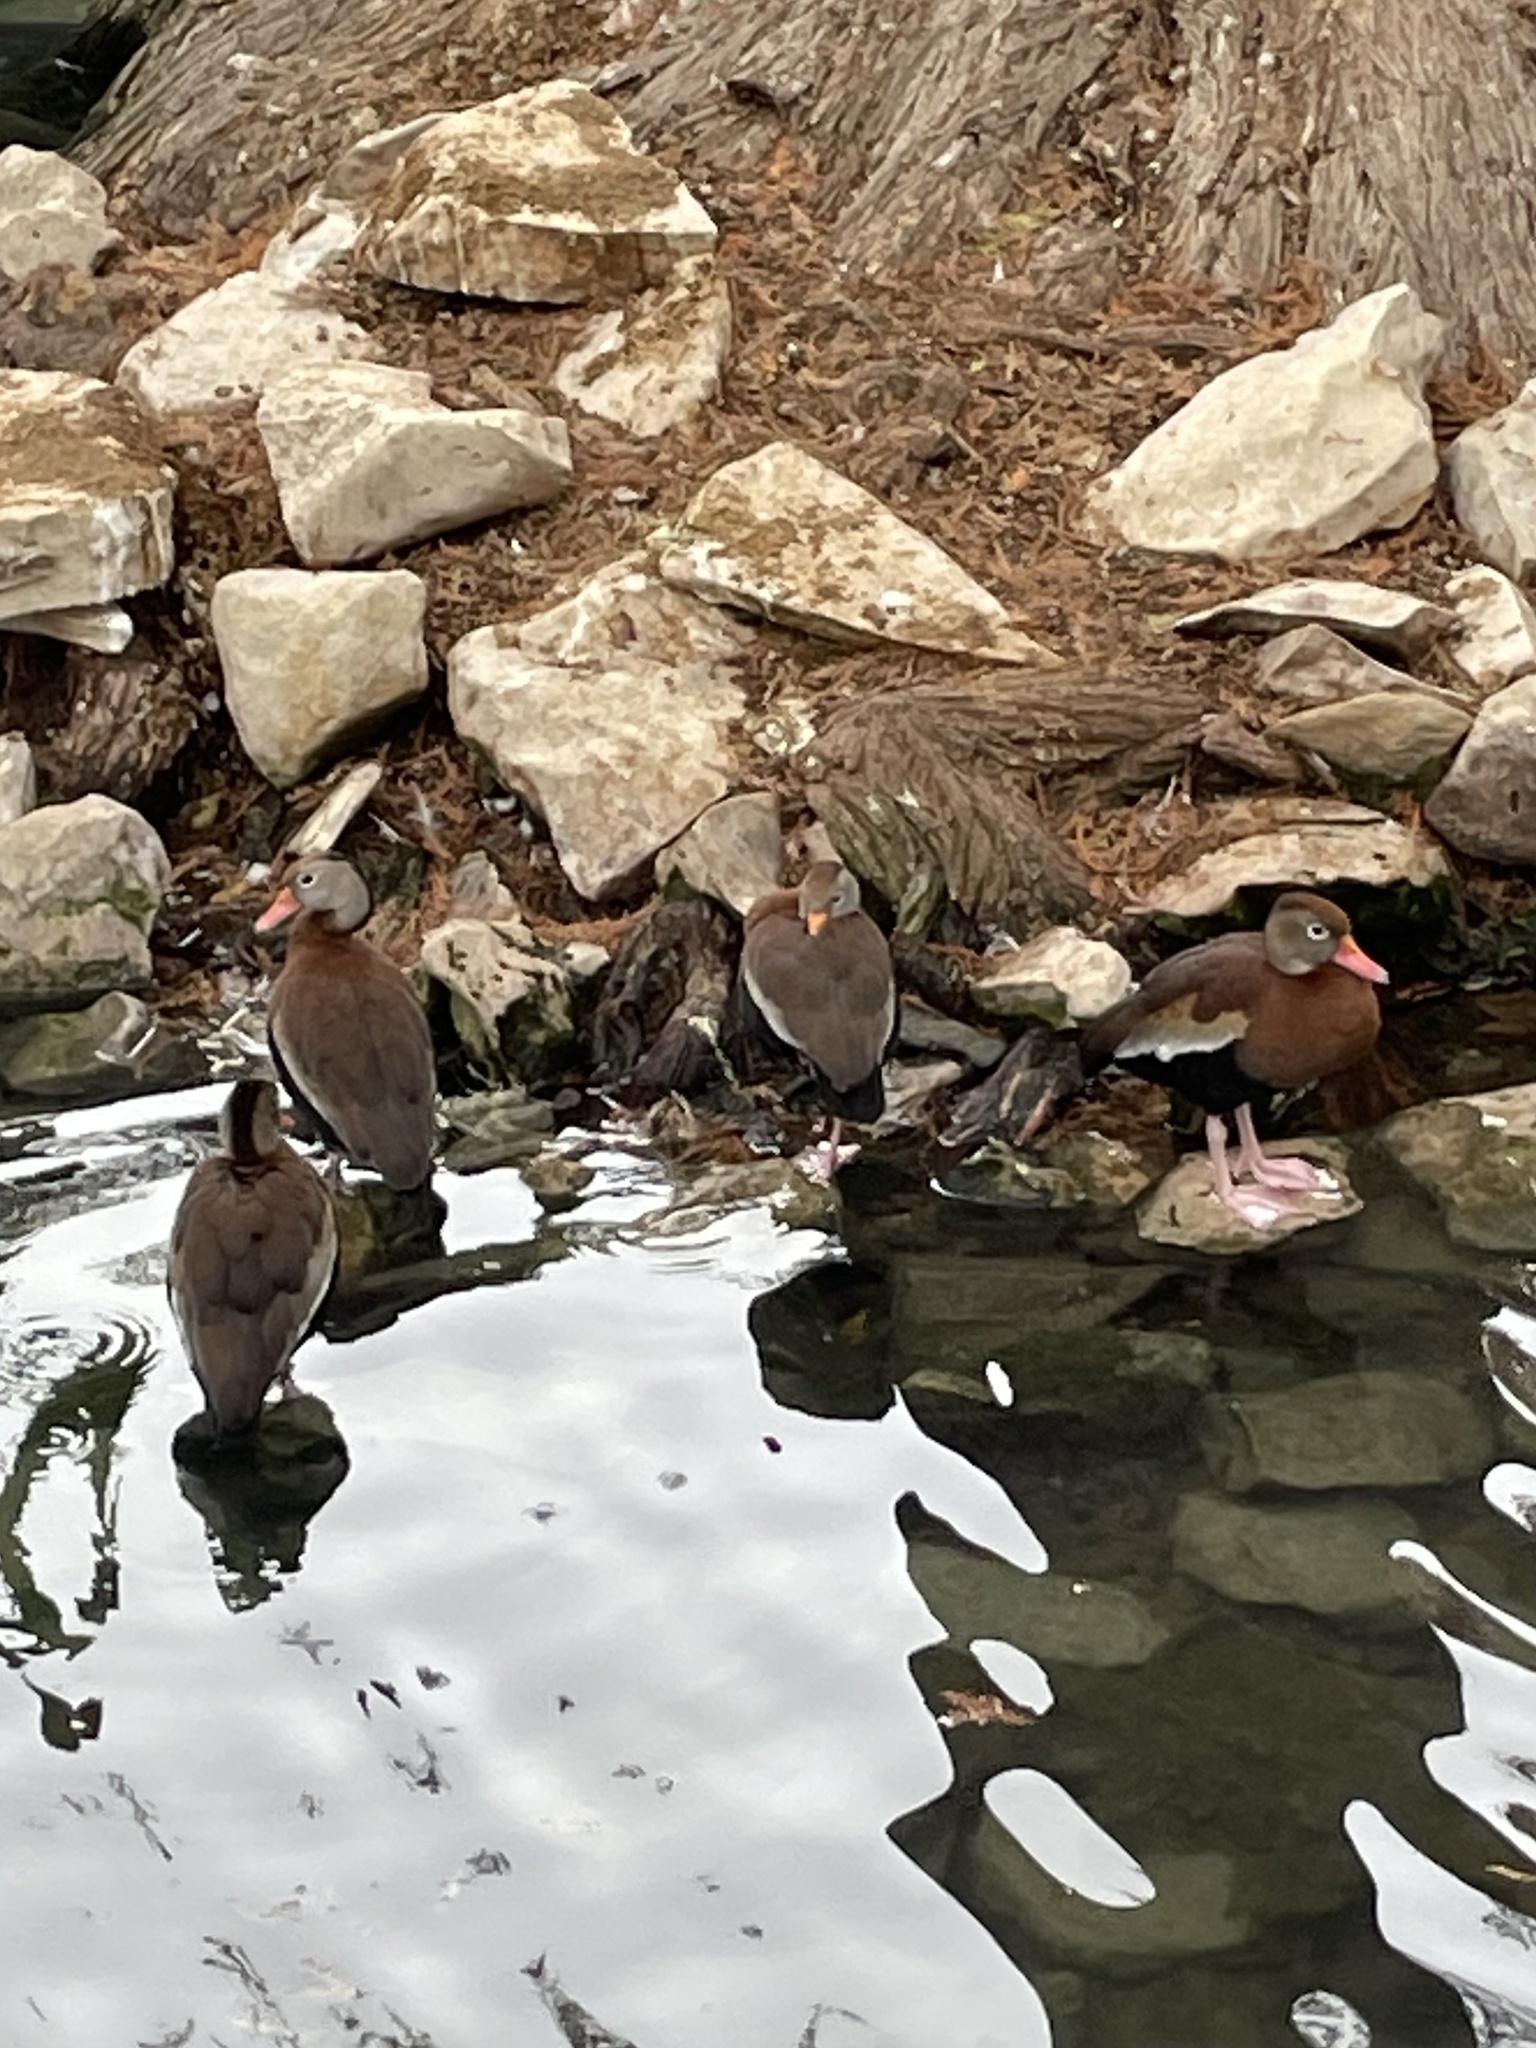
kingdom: Animalia
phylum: Chordata
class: Aves
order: Anseriformes
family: Anatidae
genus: Dendrocygna
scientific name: Dendrocygna autumnalis
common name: Black-bellied whistling duck
